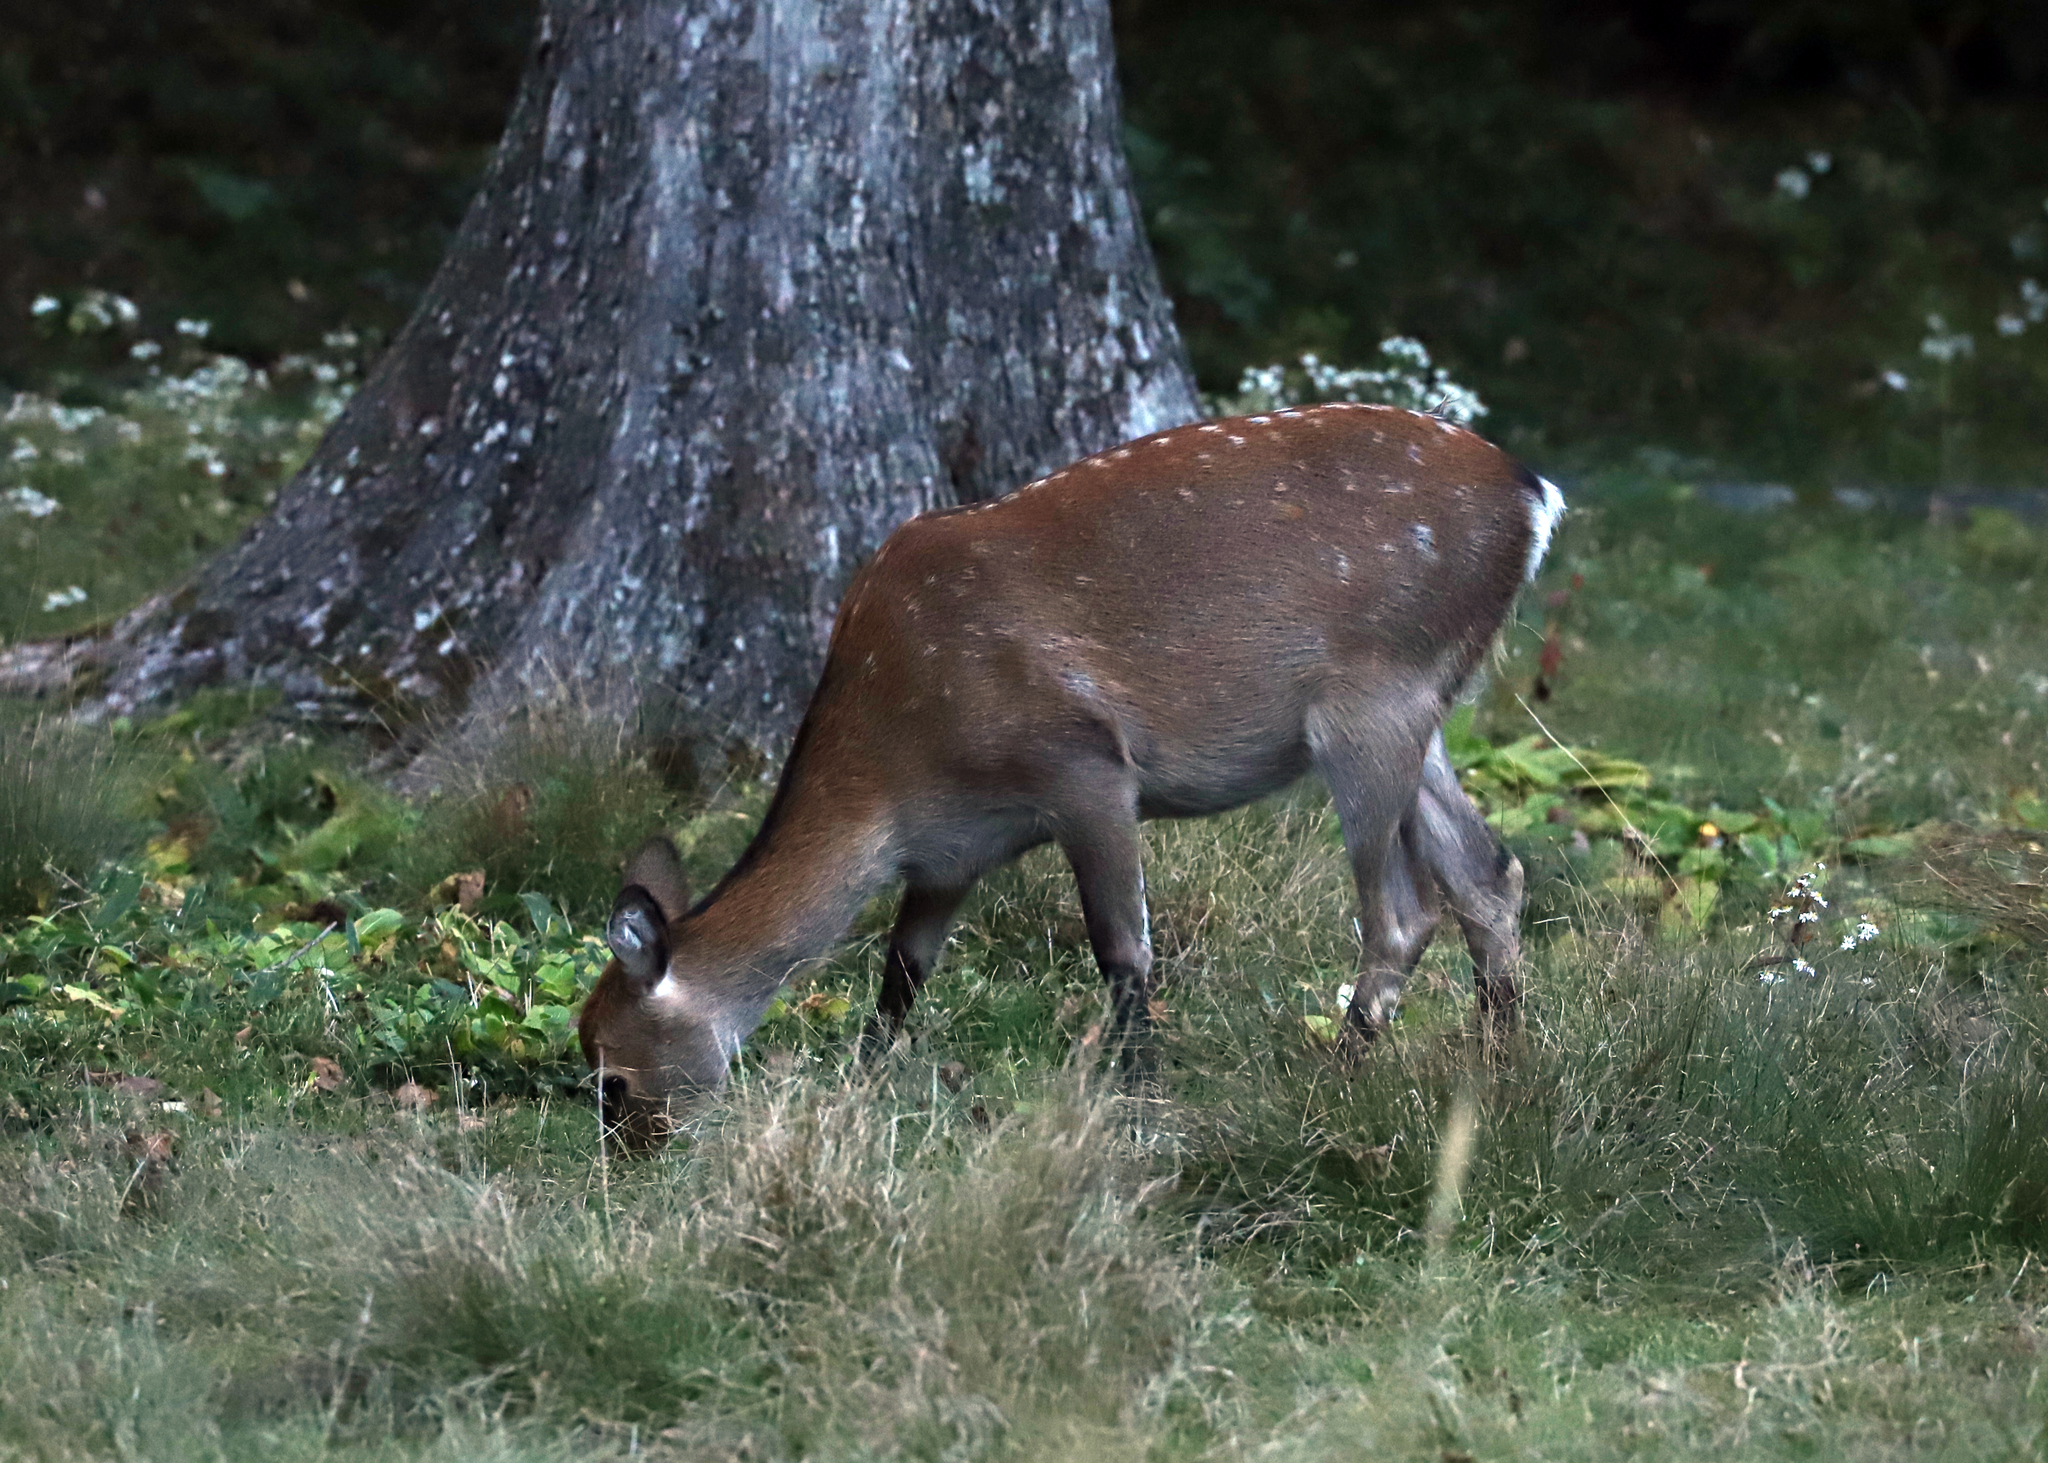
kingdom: Animalia
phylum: Chordata
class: Mammalia
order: Artiodactyla
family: Cervidae
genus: Cervus
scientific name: Cervus nippon
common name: Sika deer
